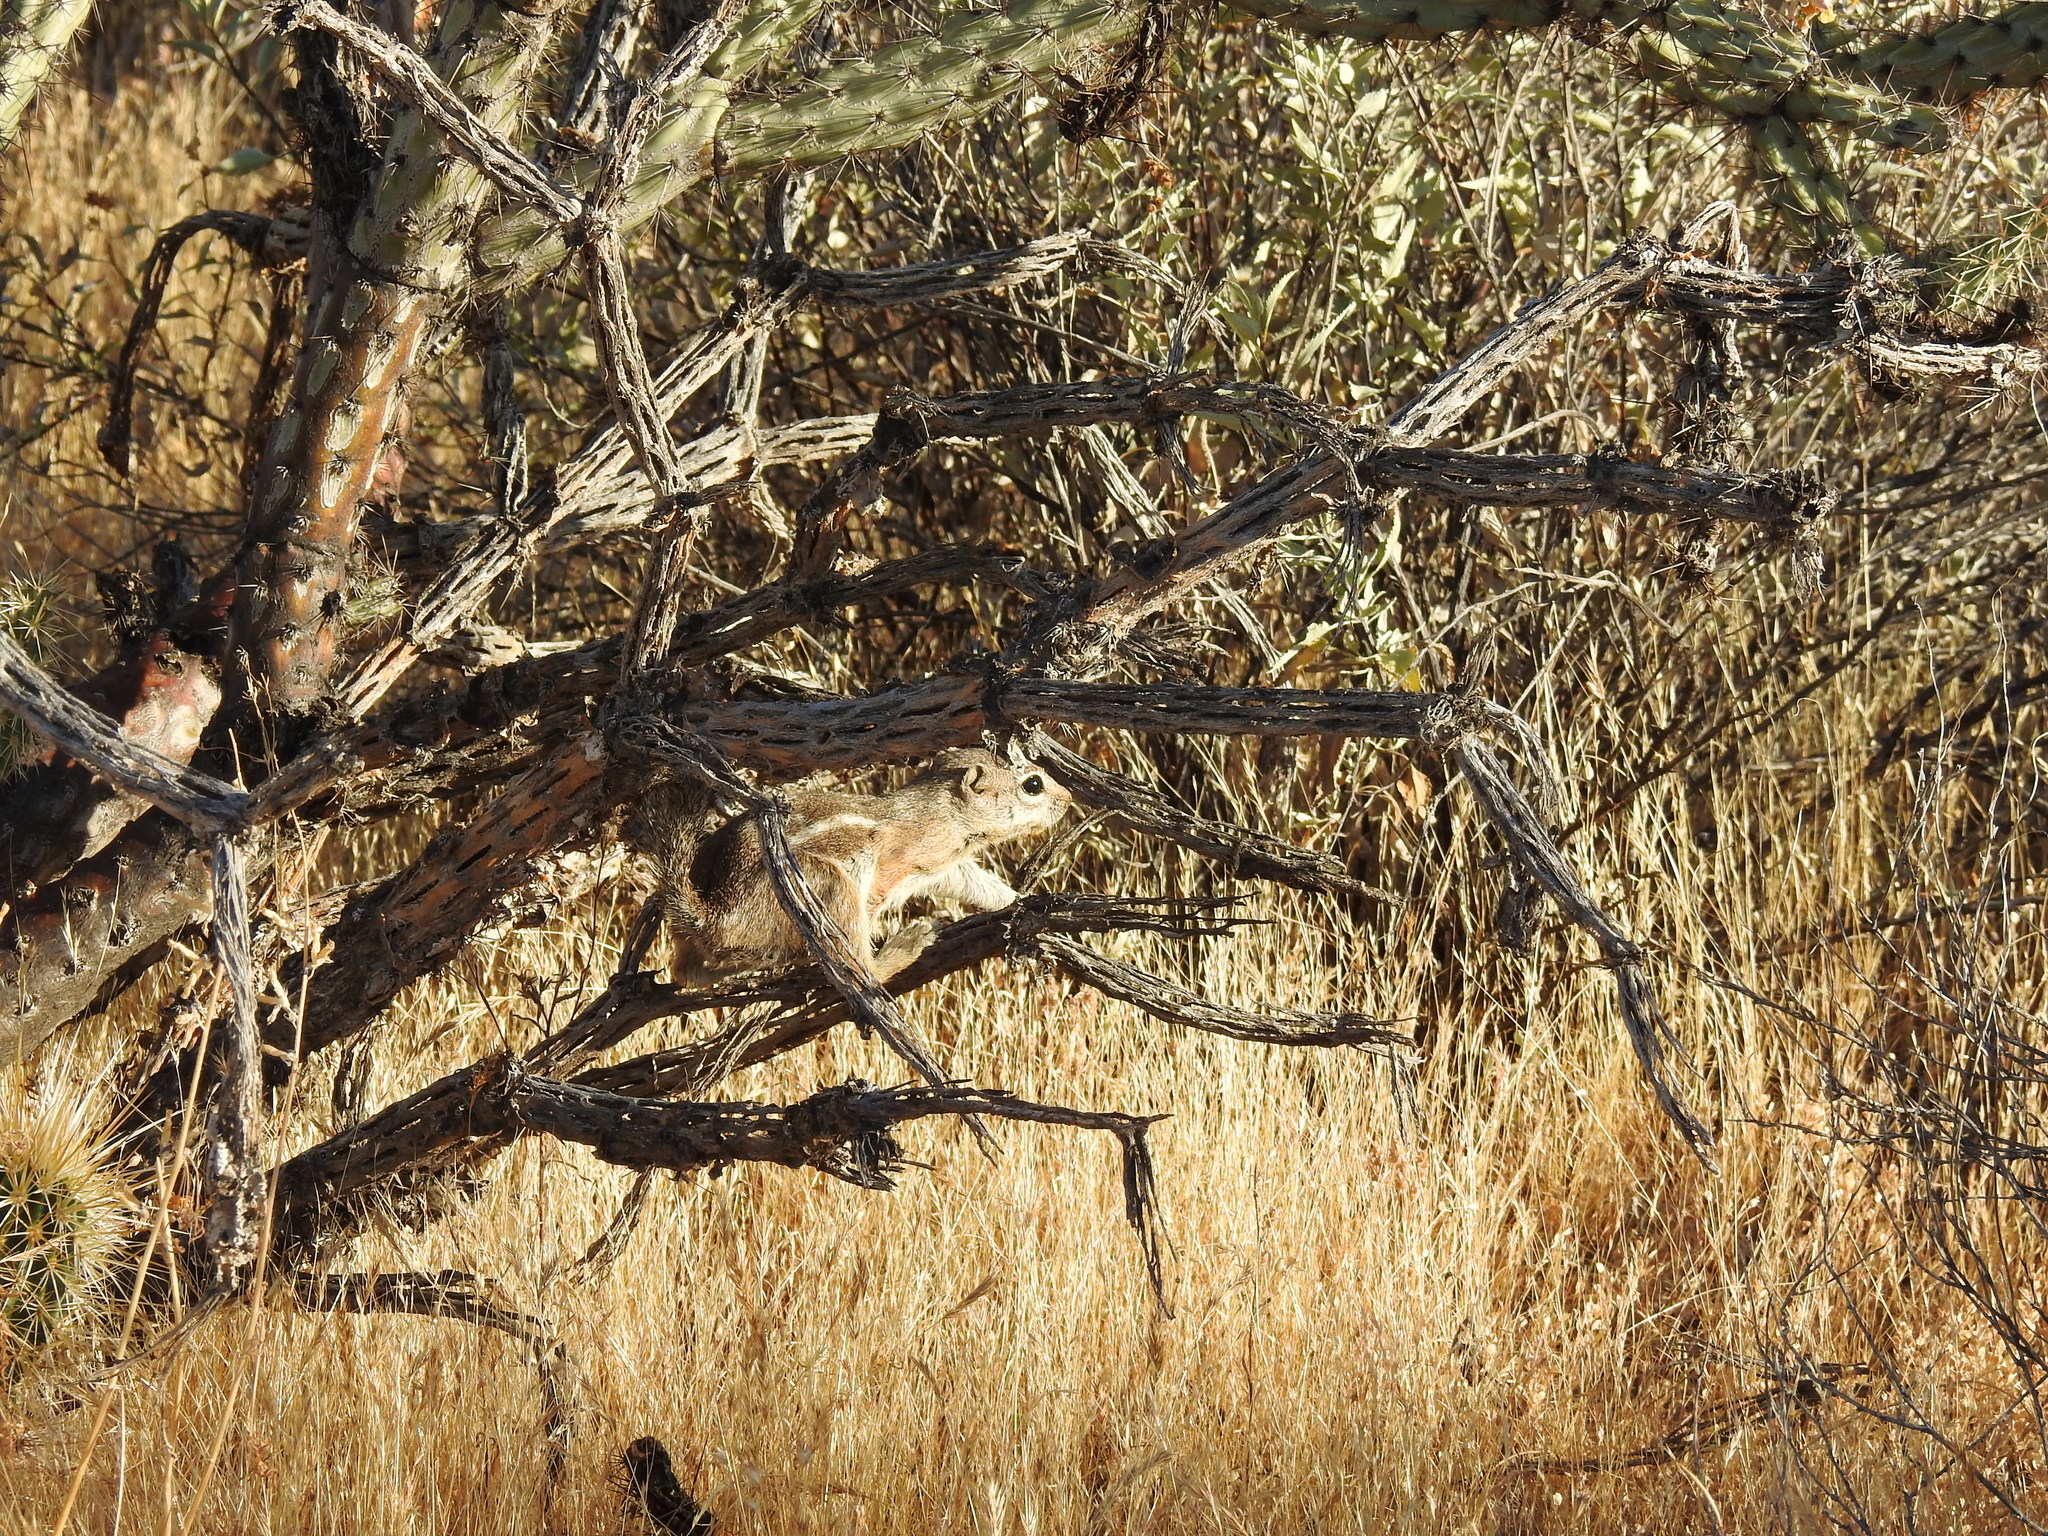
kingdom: Animalia
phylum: Chordata
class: Mammalia
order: Rodentia
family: Sciuridae
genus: Ammospermophilus
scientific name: Ammospermophilus harrisii
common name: Harris's antelope squirrel
